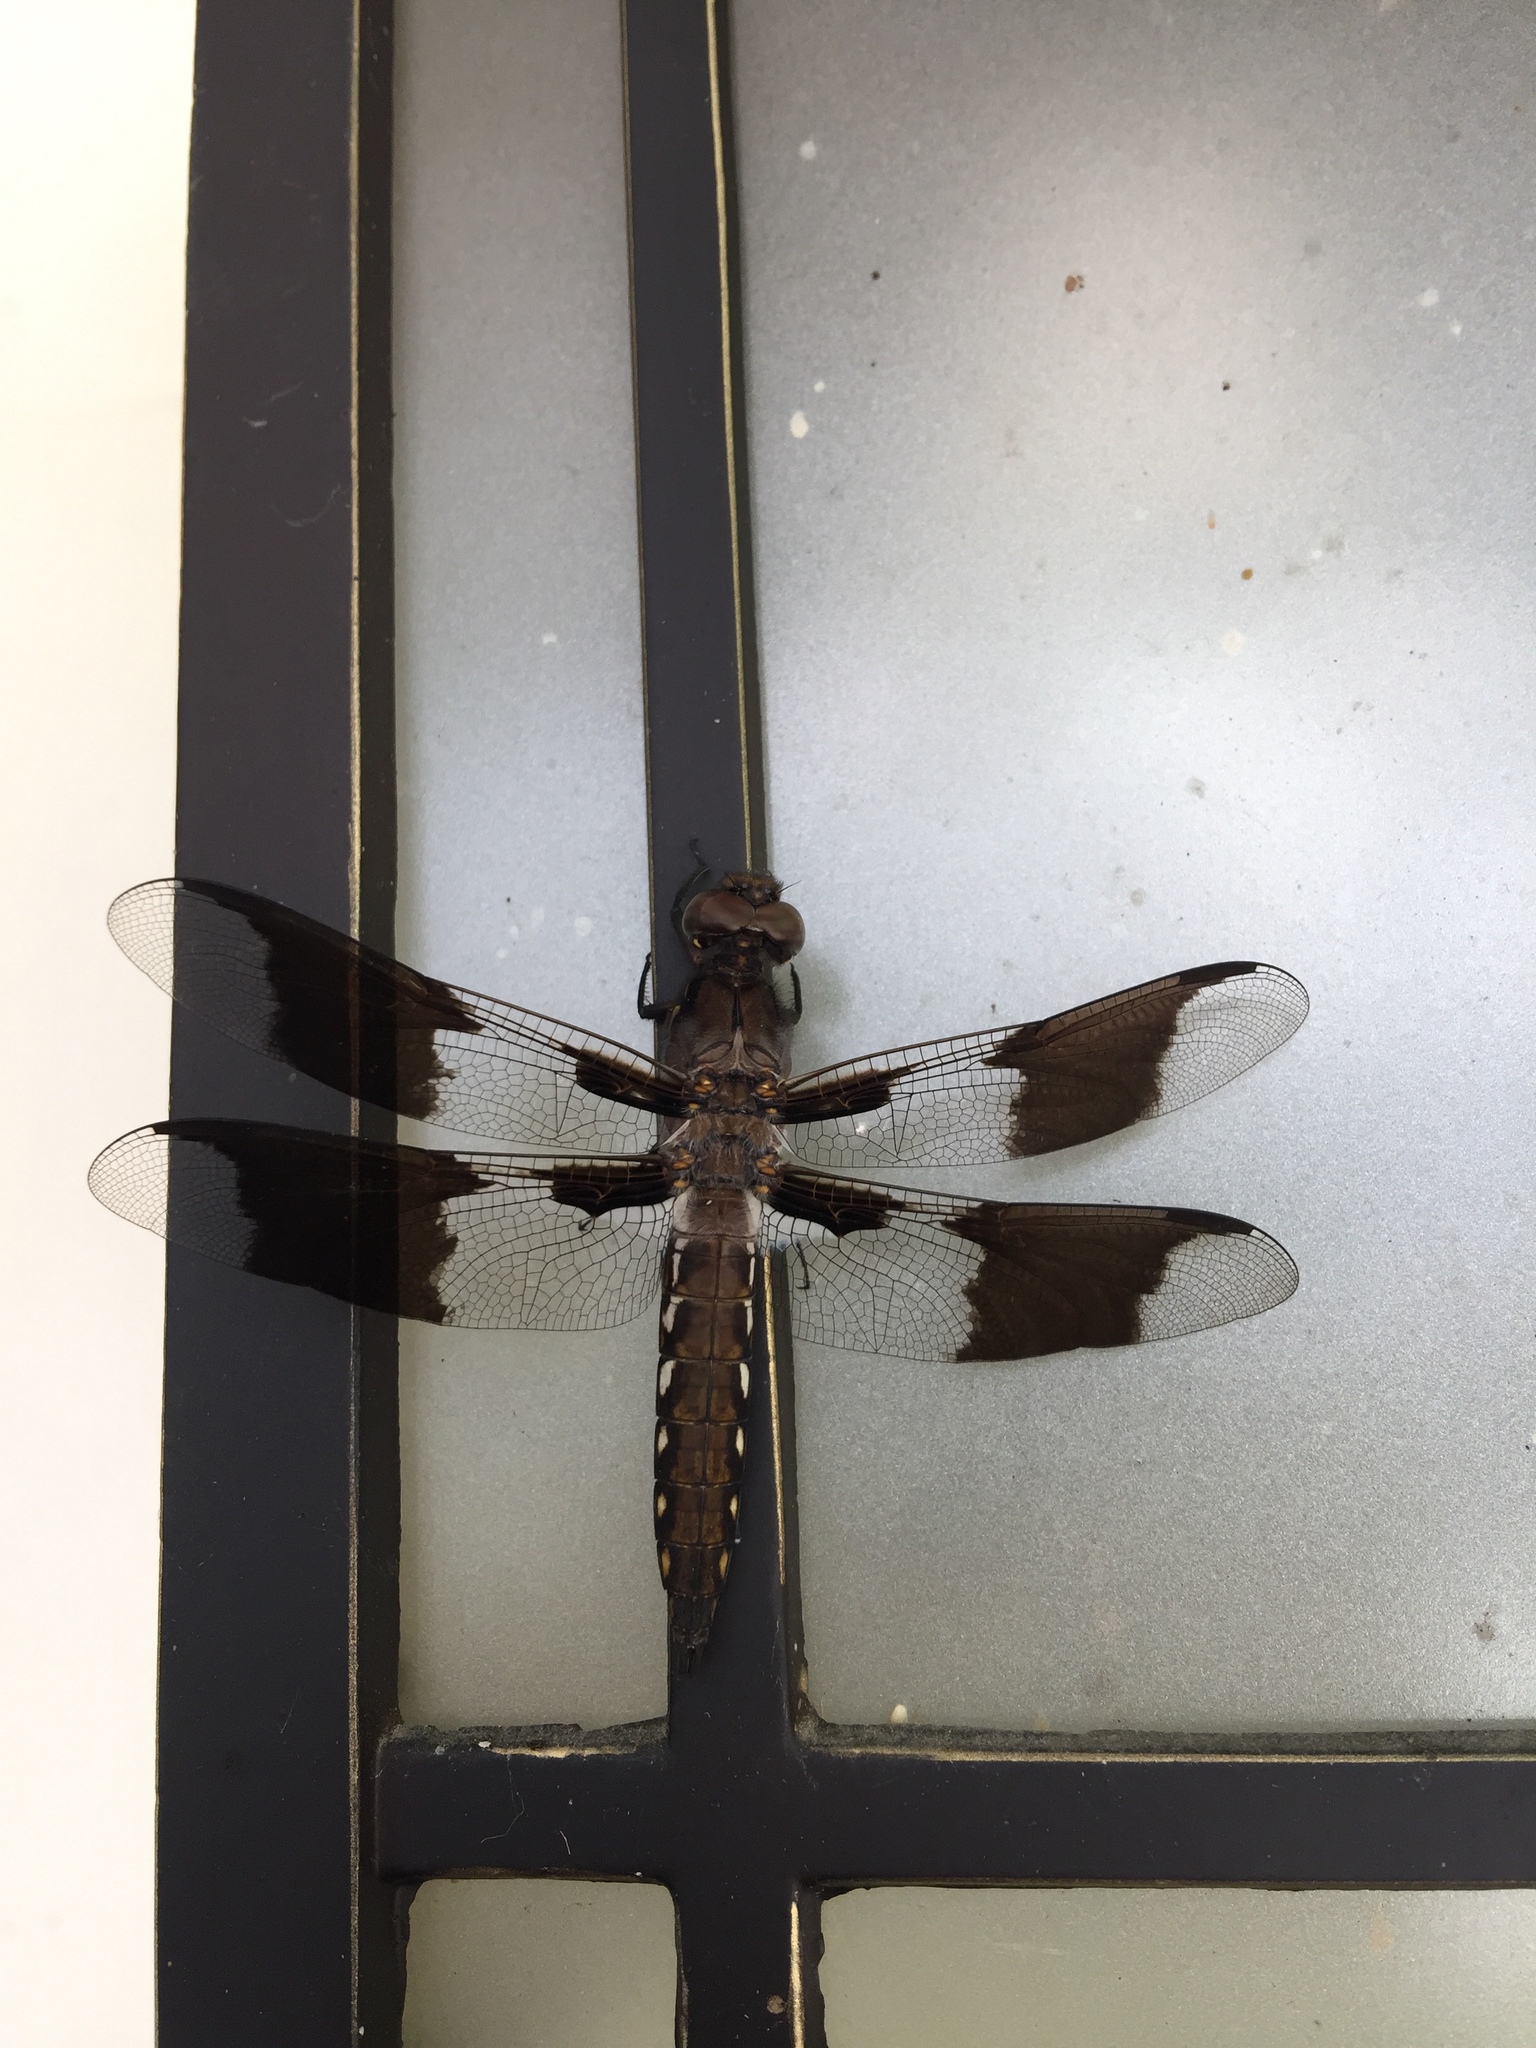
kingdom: Animalia
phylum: Arthropoda
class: Insecta
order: Odonata
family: Libellulidae
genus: Plathemis
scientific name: Plathemis lydia
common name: Common whitetail
